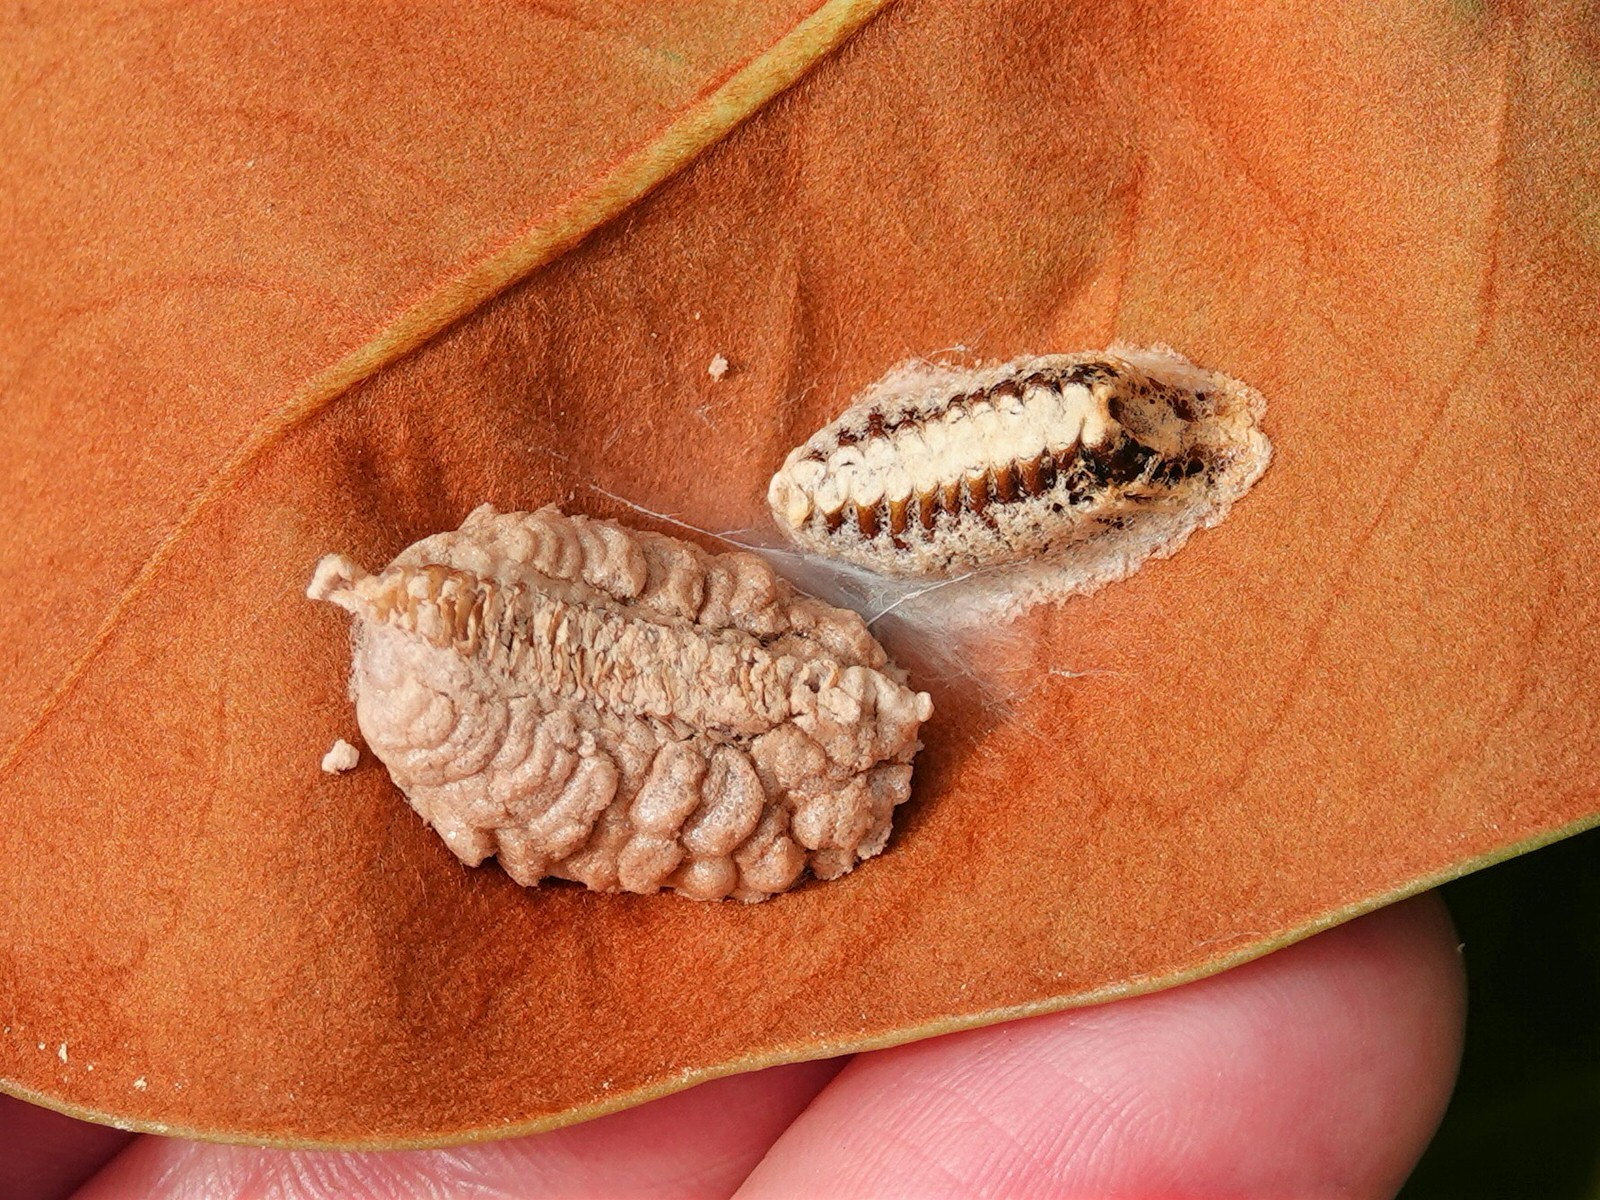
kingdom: Animalia
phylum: Arthropoda
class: Insecta
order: Mantodea
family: Mantidae
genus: Orthodera
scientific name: Orthodera novaezealandiae
